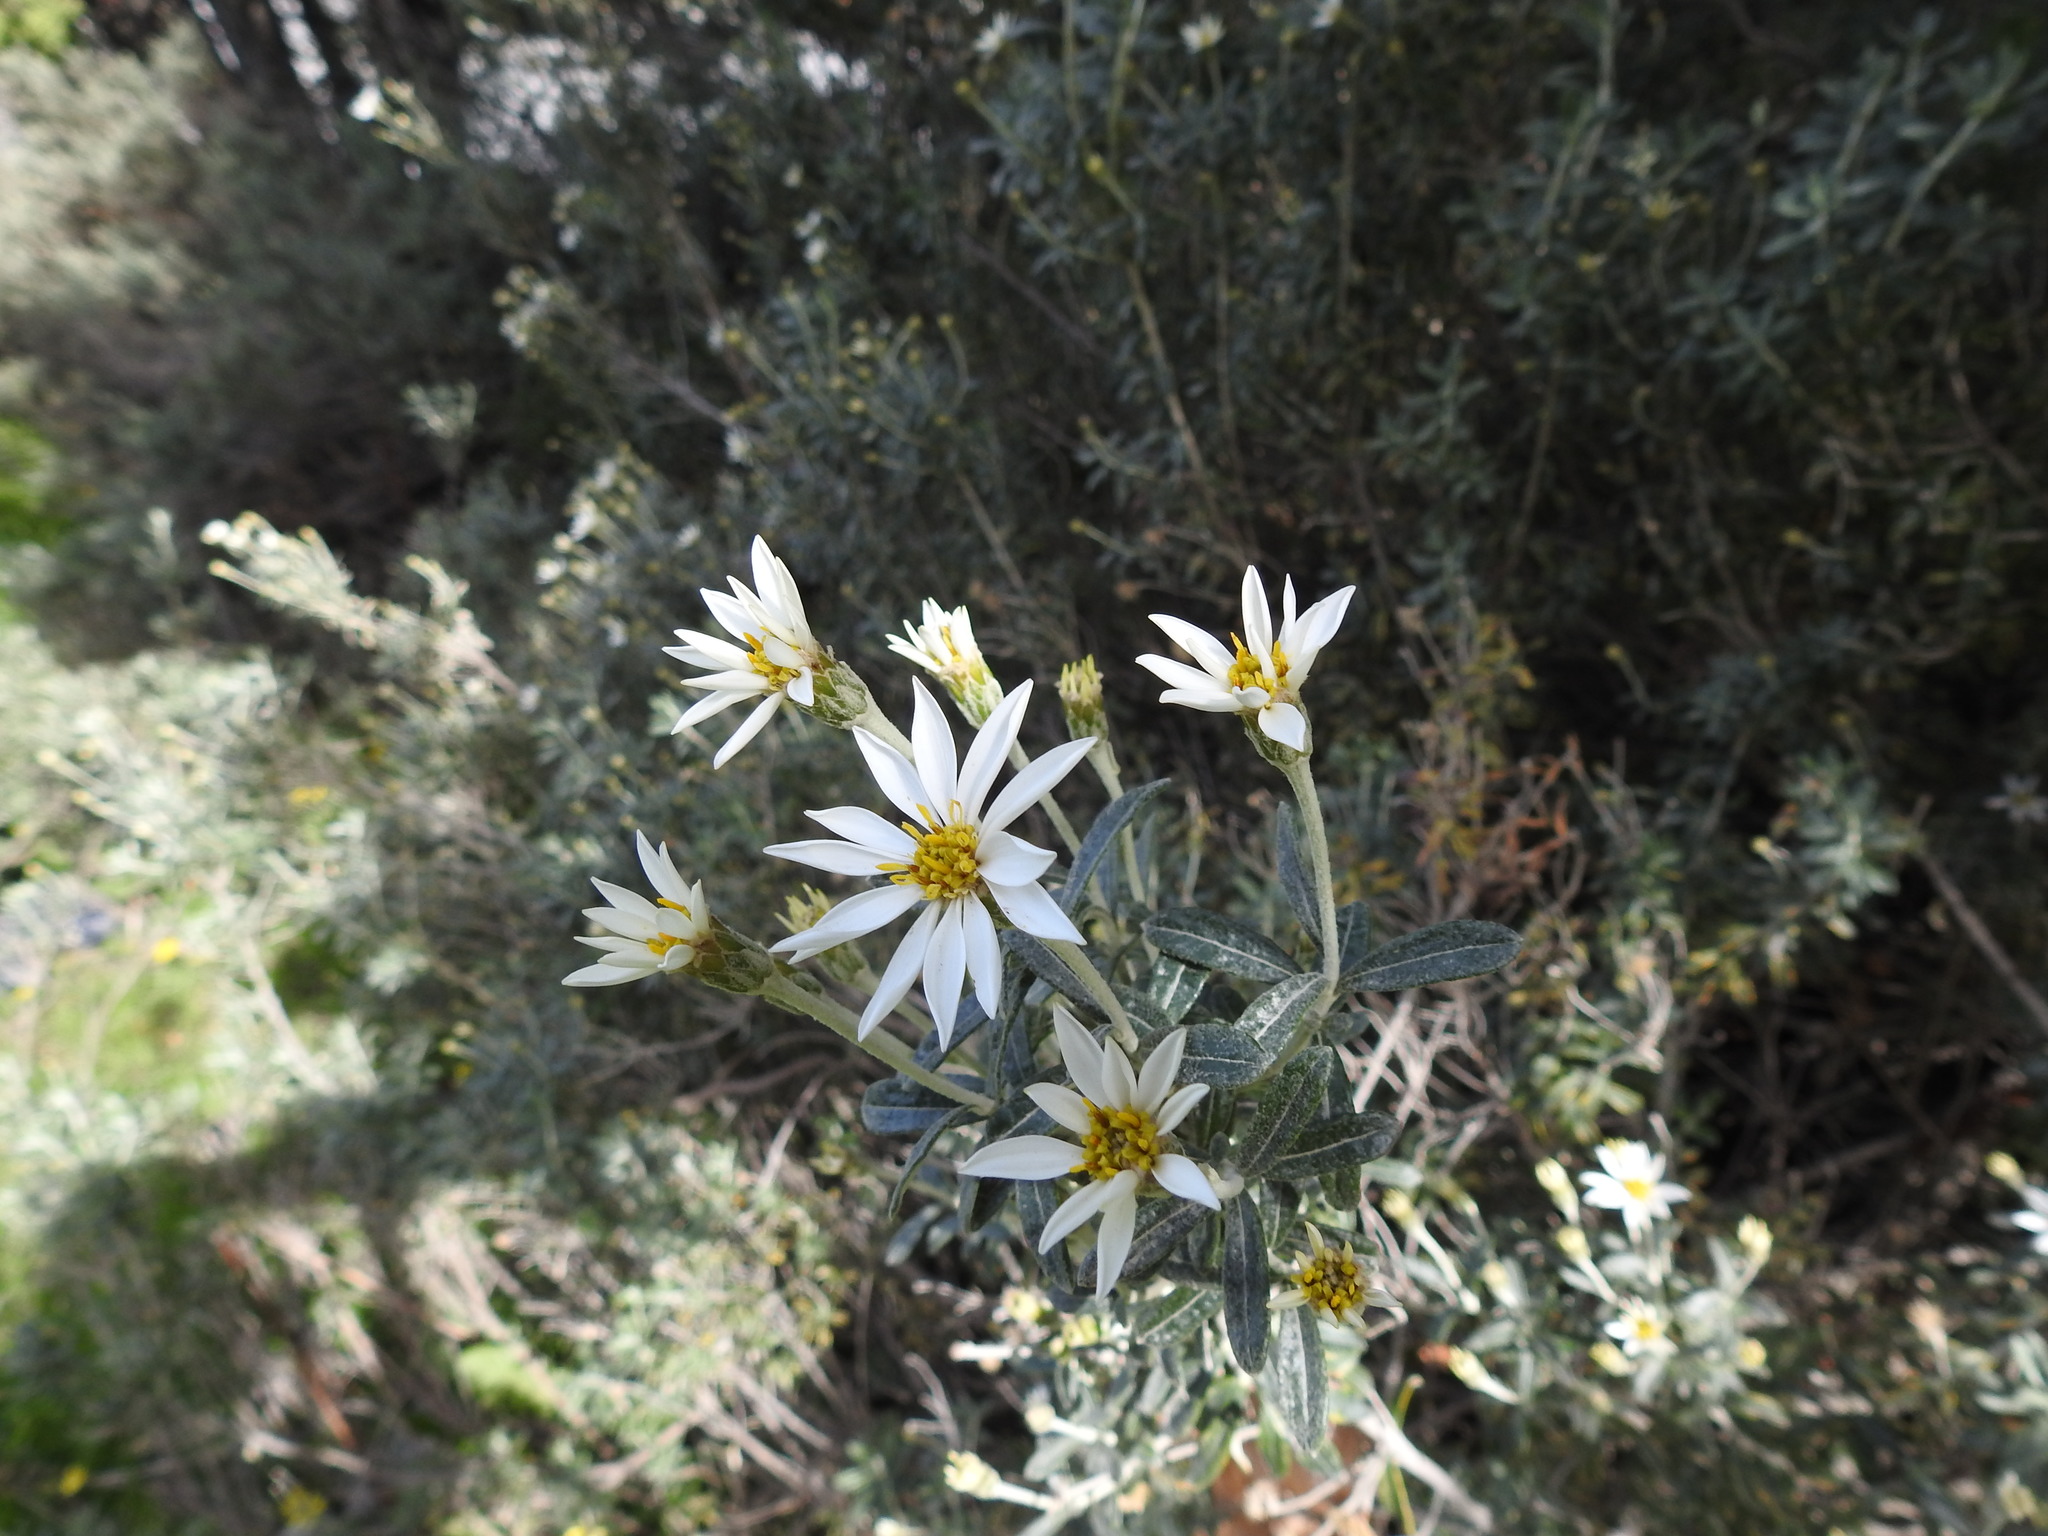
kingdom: Plantae
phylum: Tracheophyta
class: Magnoliopsida
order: Asterales
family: Asteraceae
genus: Chiliotrichum
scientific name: Chiliotrichum diffusum
